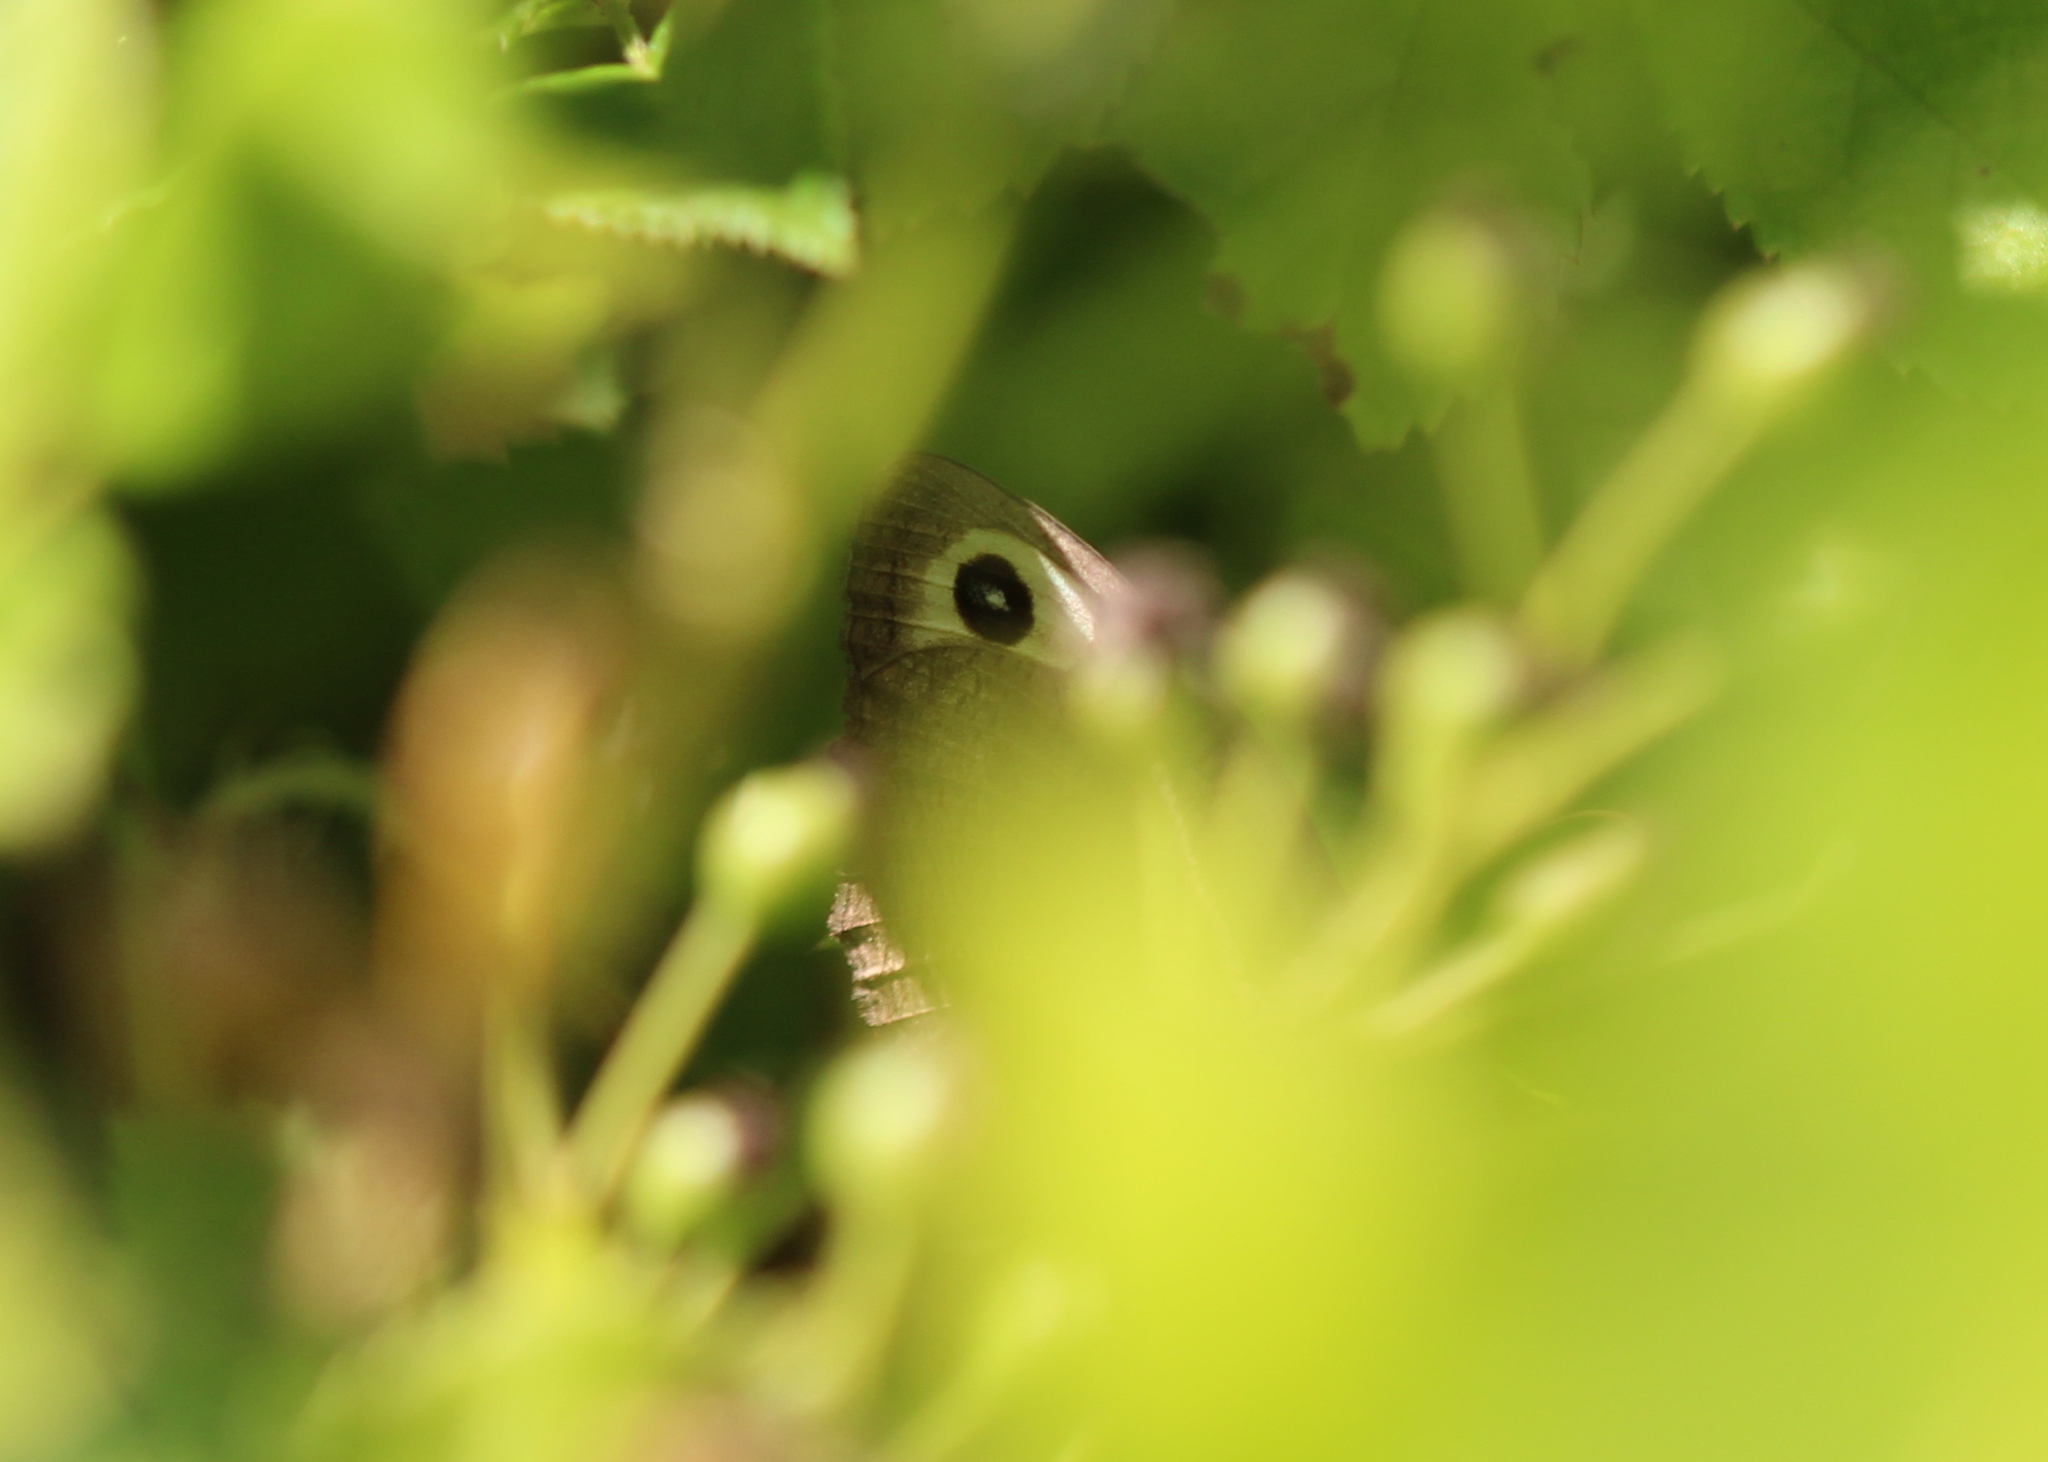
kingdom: Animalia
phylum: Arthropoda
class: Insecta
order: Lepidoptera
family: Nymphalidae
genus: Cercyonis
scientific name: Cercyonis pegala
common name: Common wood-nymph
